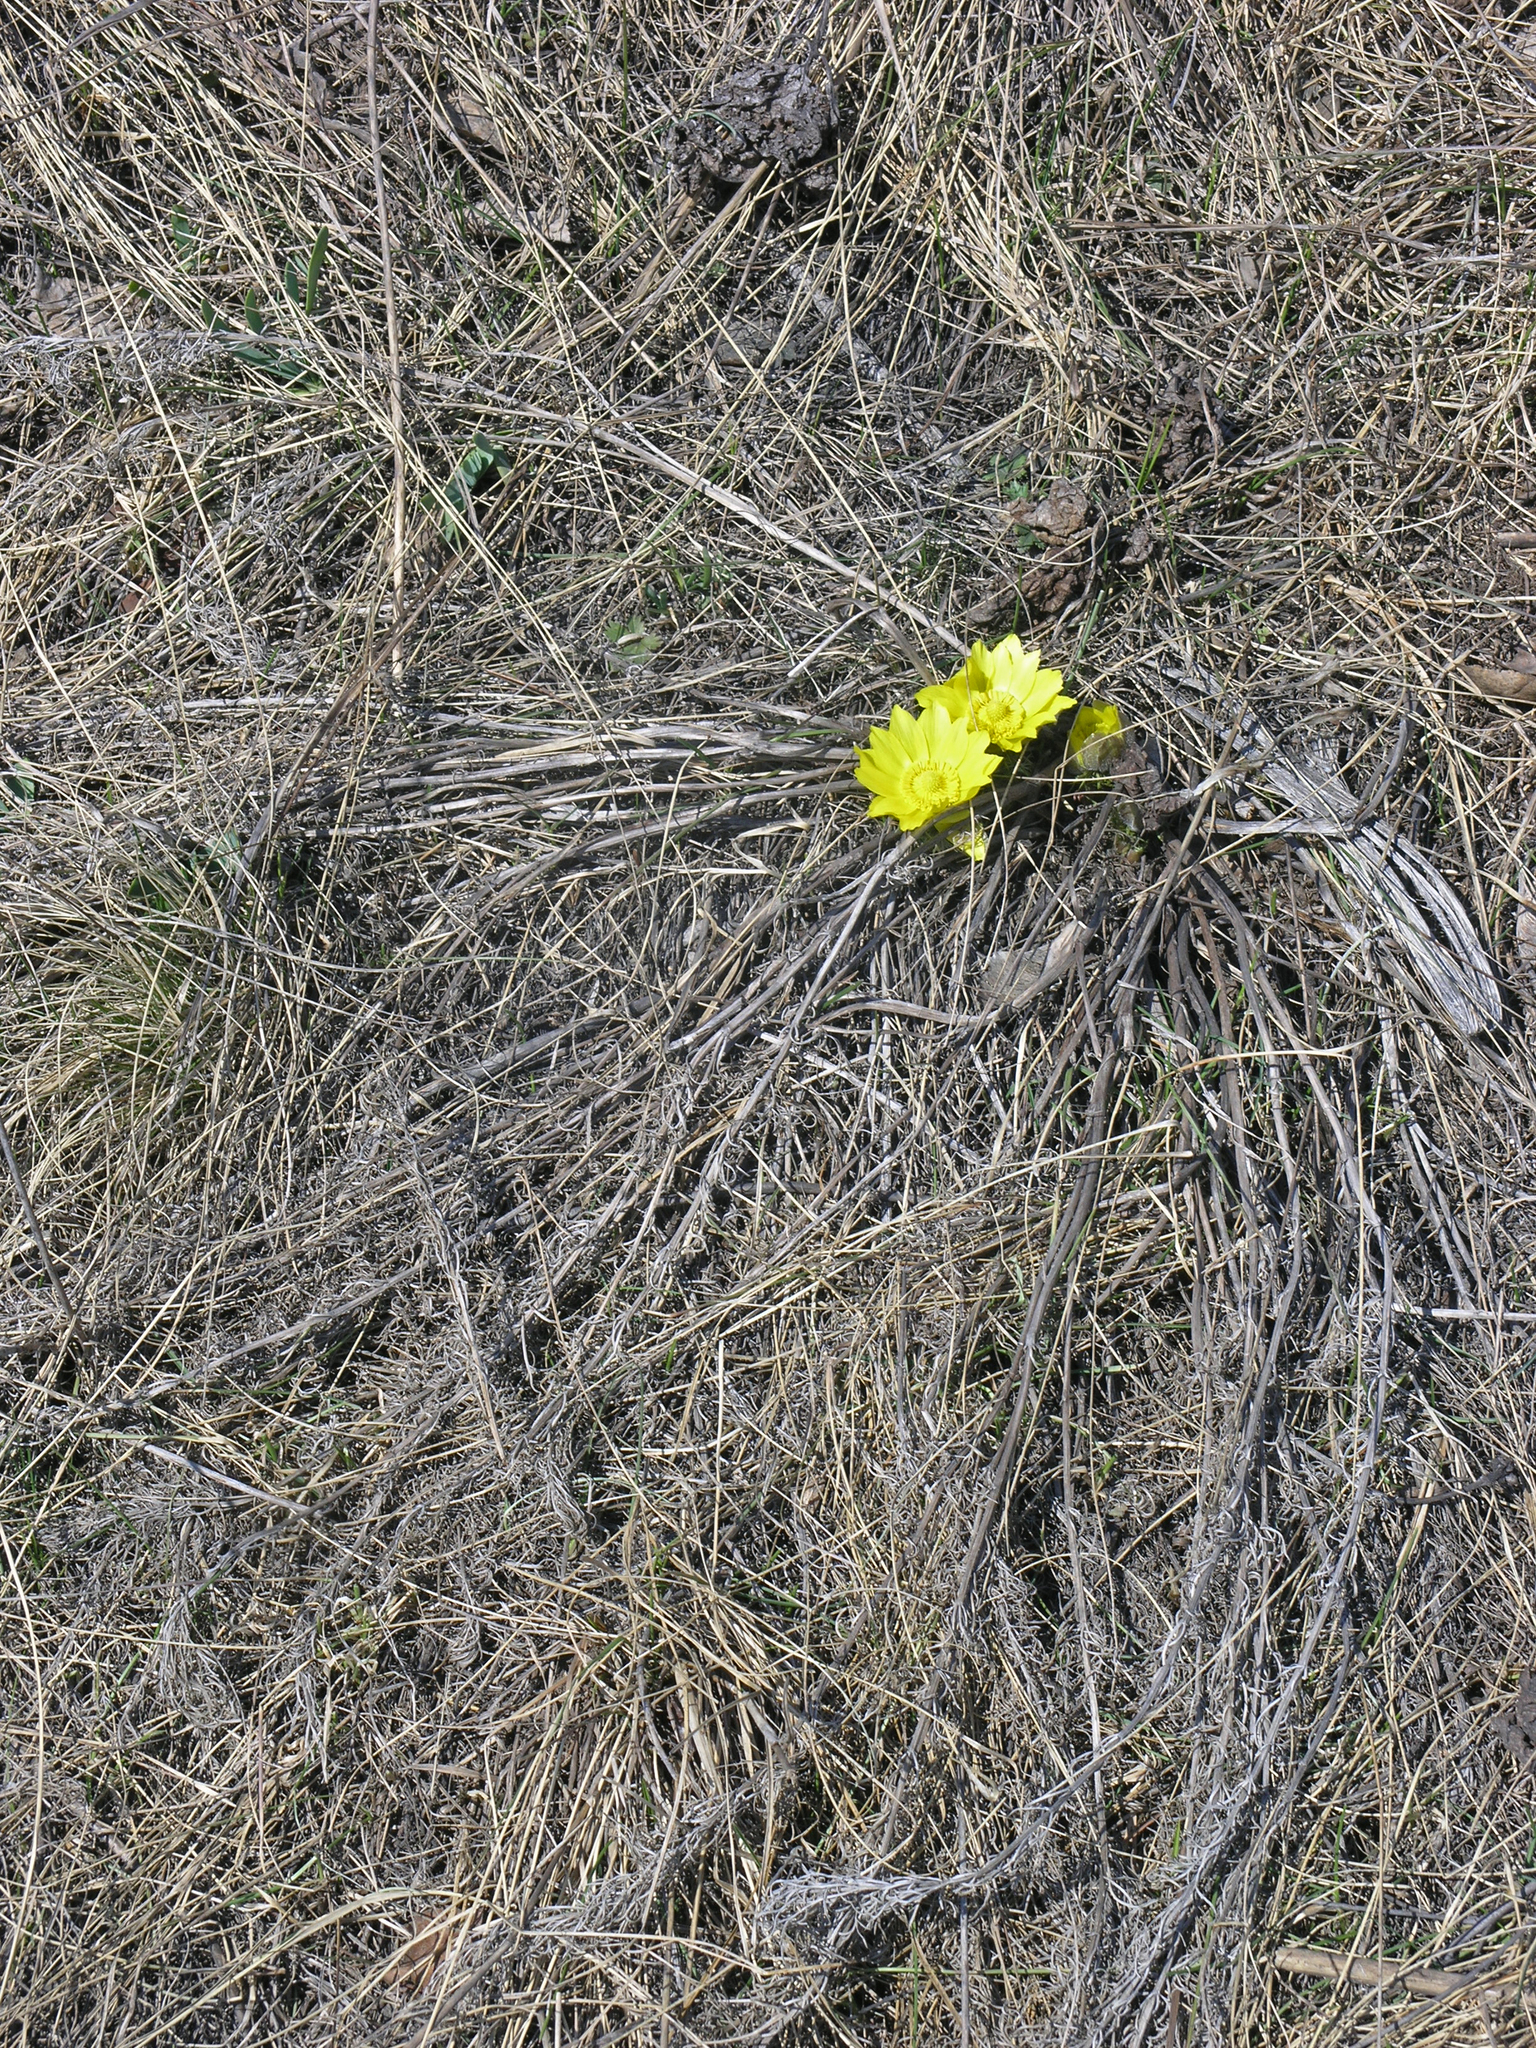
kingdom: Plantae
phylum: Tracheophyta
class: Magnoliopsida
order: Ranunculales
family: Ranunculaceae
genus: Adonis
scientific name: Adonis vernalis
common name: Yellow pheasants-eye
